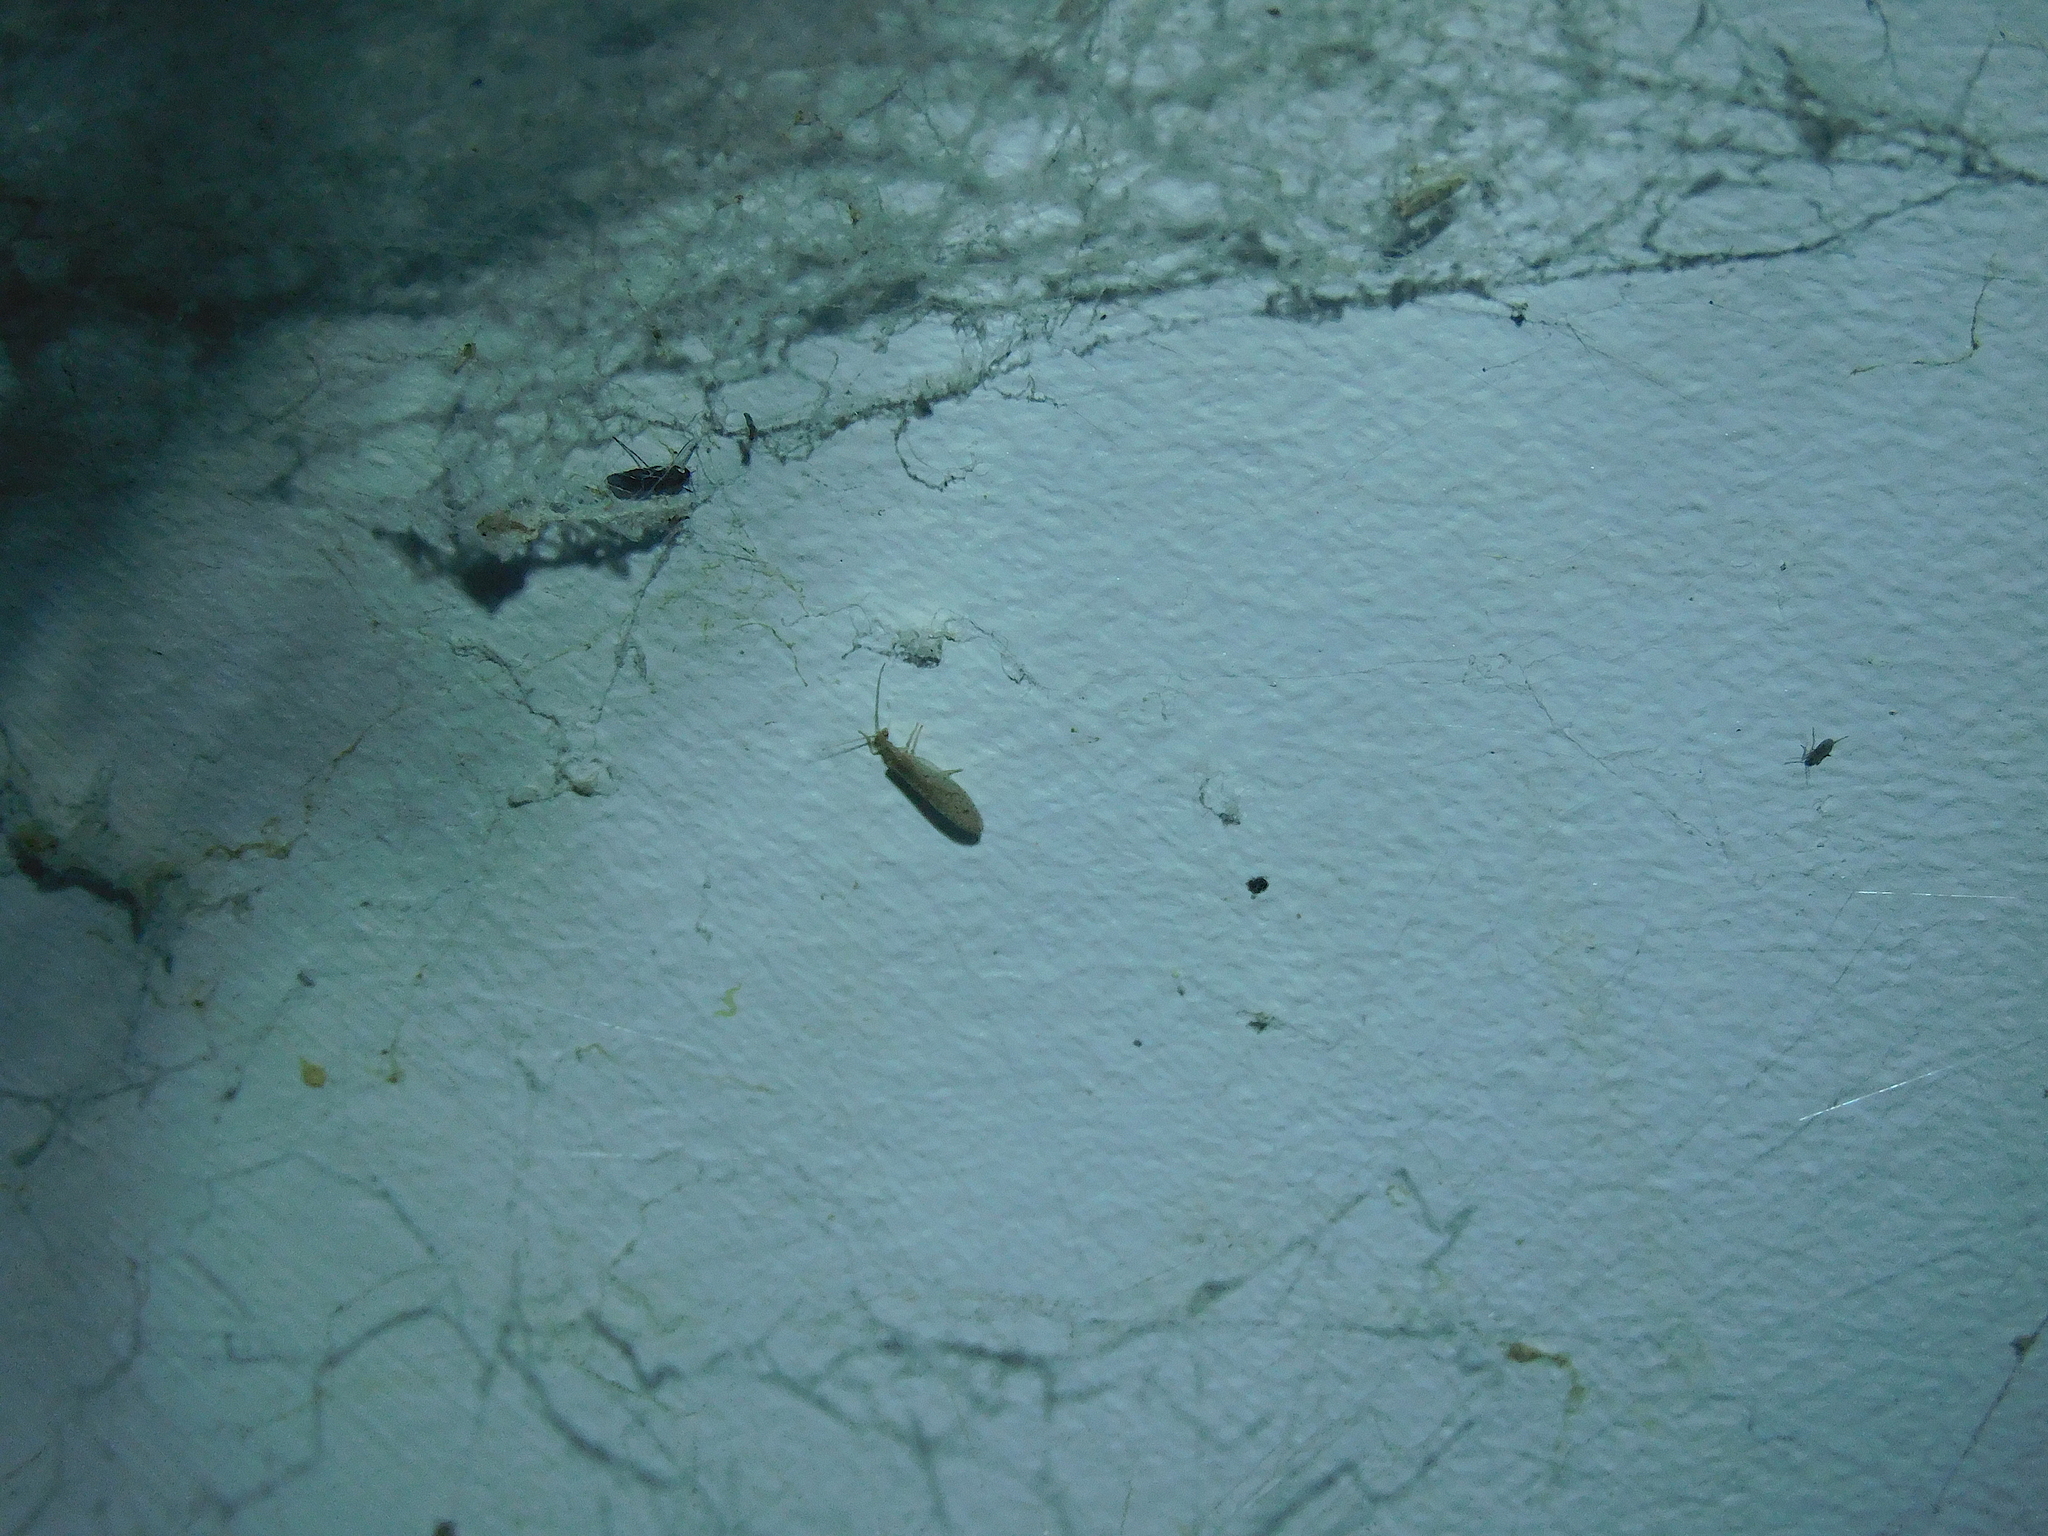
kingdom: Animalia
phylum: Arthropoda
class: Insecta
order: Neuroptera
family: Hemerobiidae
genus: Micromus
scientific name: Micromus tasmaniae
